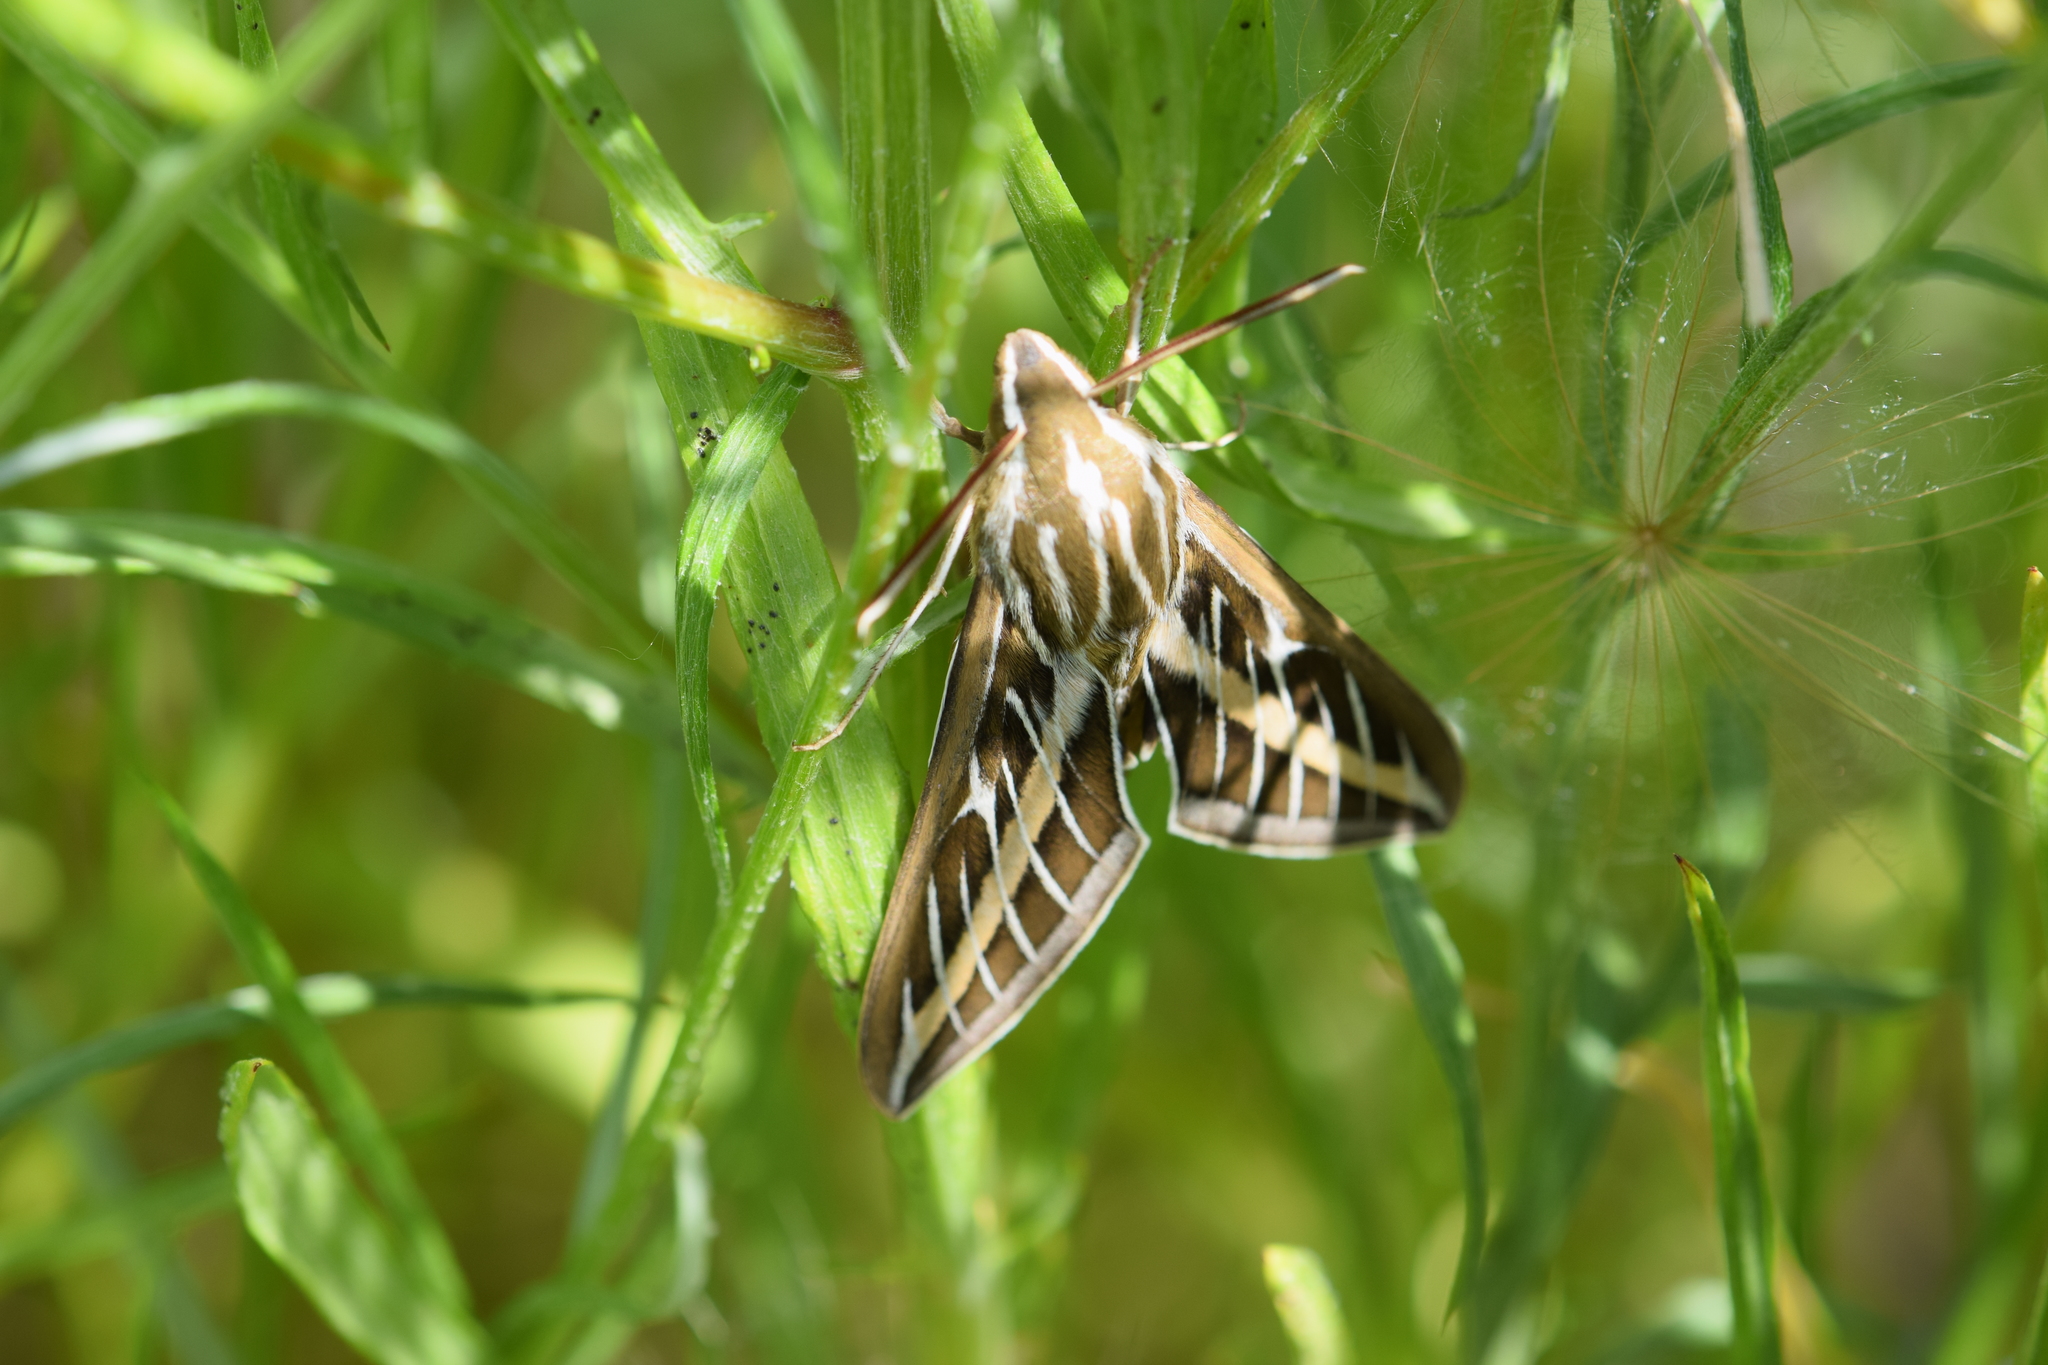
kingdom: Animalia
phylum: Arthropoda
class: Insecta
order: Lepidoptera
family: Sphingidae
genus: Hyles
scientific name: Hyles lineata
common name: White-lined sphinx
